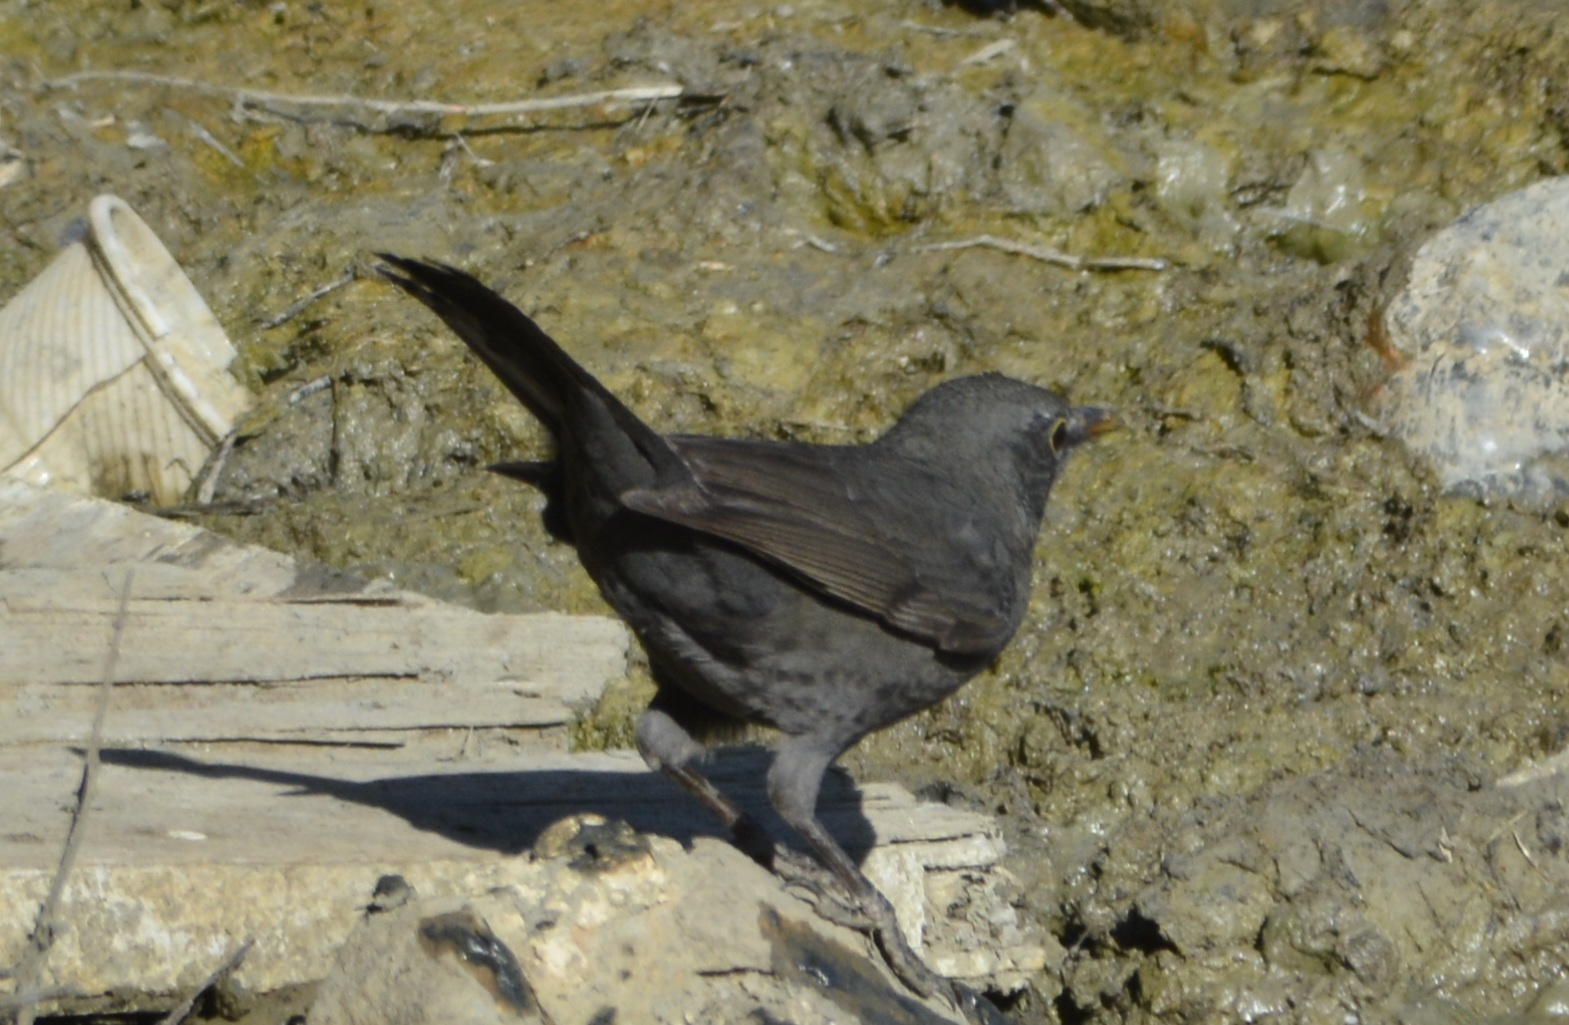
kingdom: Animalia
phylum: Chordata
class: Aves
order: Passeriformes
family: Turdidae
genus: Turdus
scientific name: Turdus merula
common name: Common blackbird
